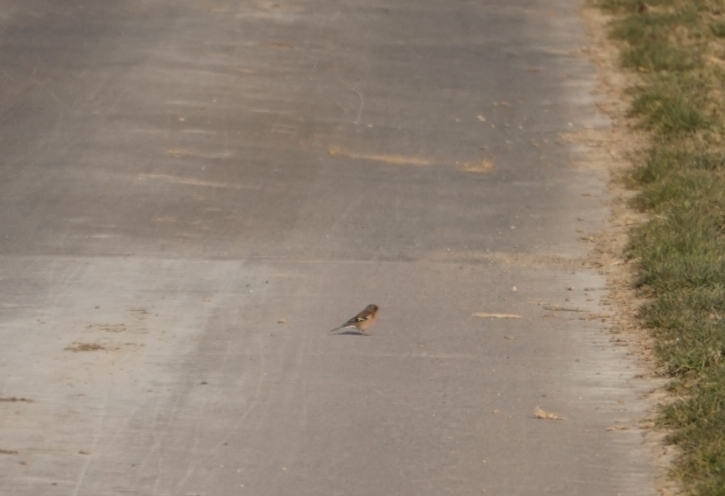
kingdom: Animalia
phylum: Chordata
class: Aves
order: Passeriformes
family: Fringillidae
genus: Fringilla
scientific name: Fringilla coelebs
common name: Common chaffinch
